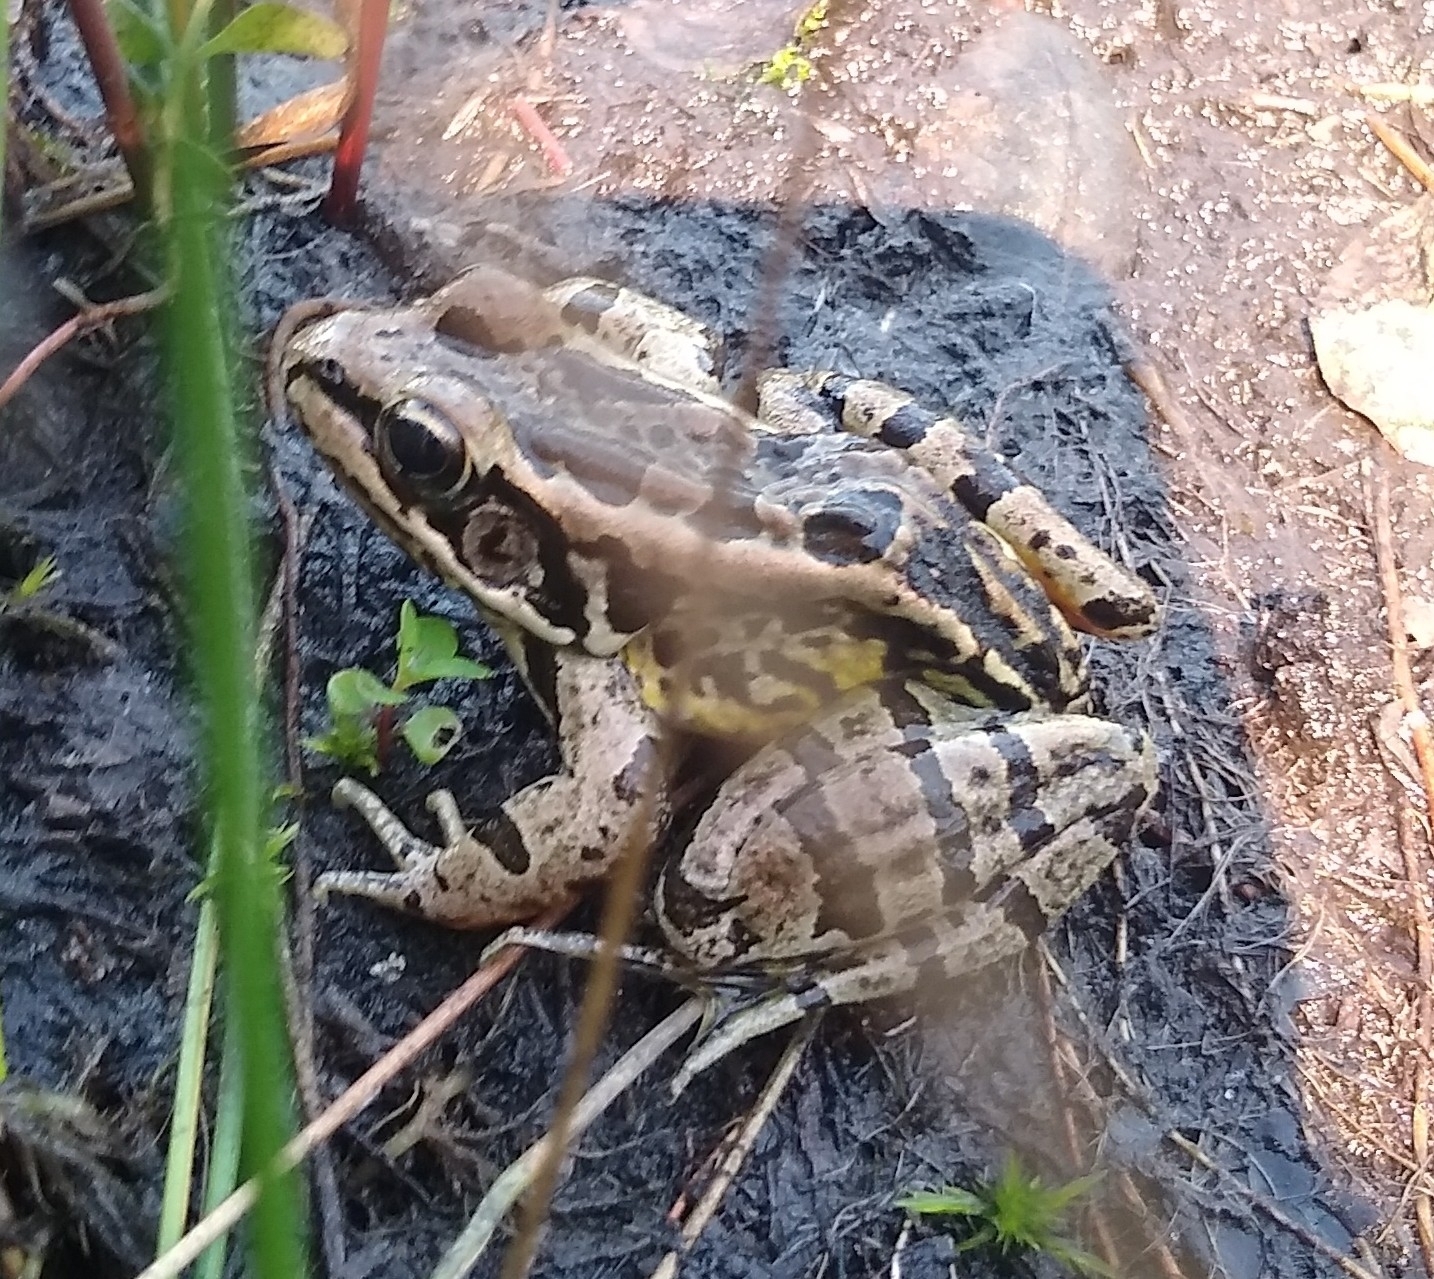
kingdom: Animalia
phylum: Chordata
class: Amphibia
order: Anura
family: Ranidae
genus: Lithobates
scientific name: Lithobates palustris
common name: Pickerel frog
